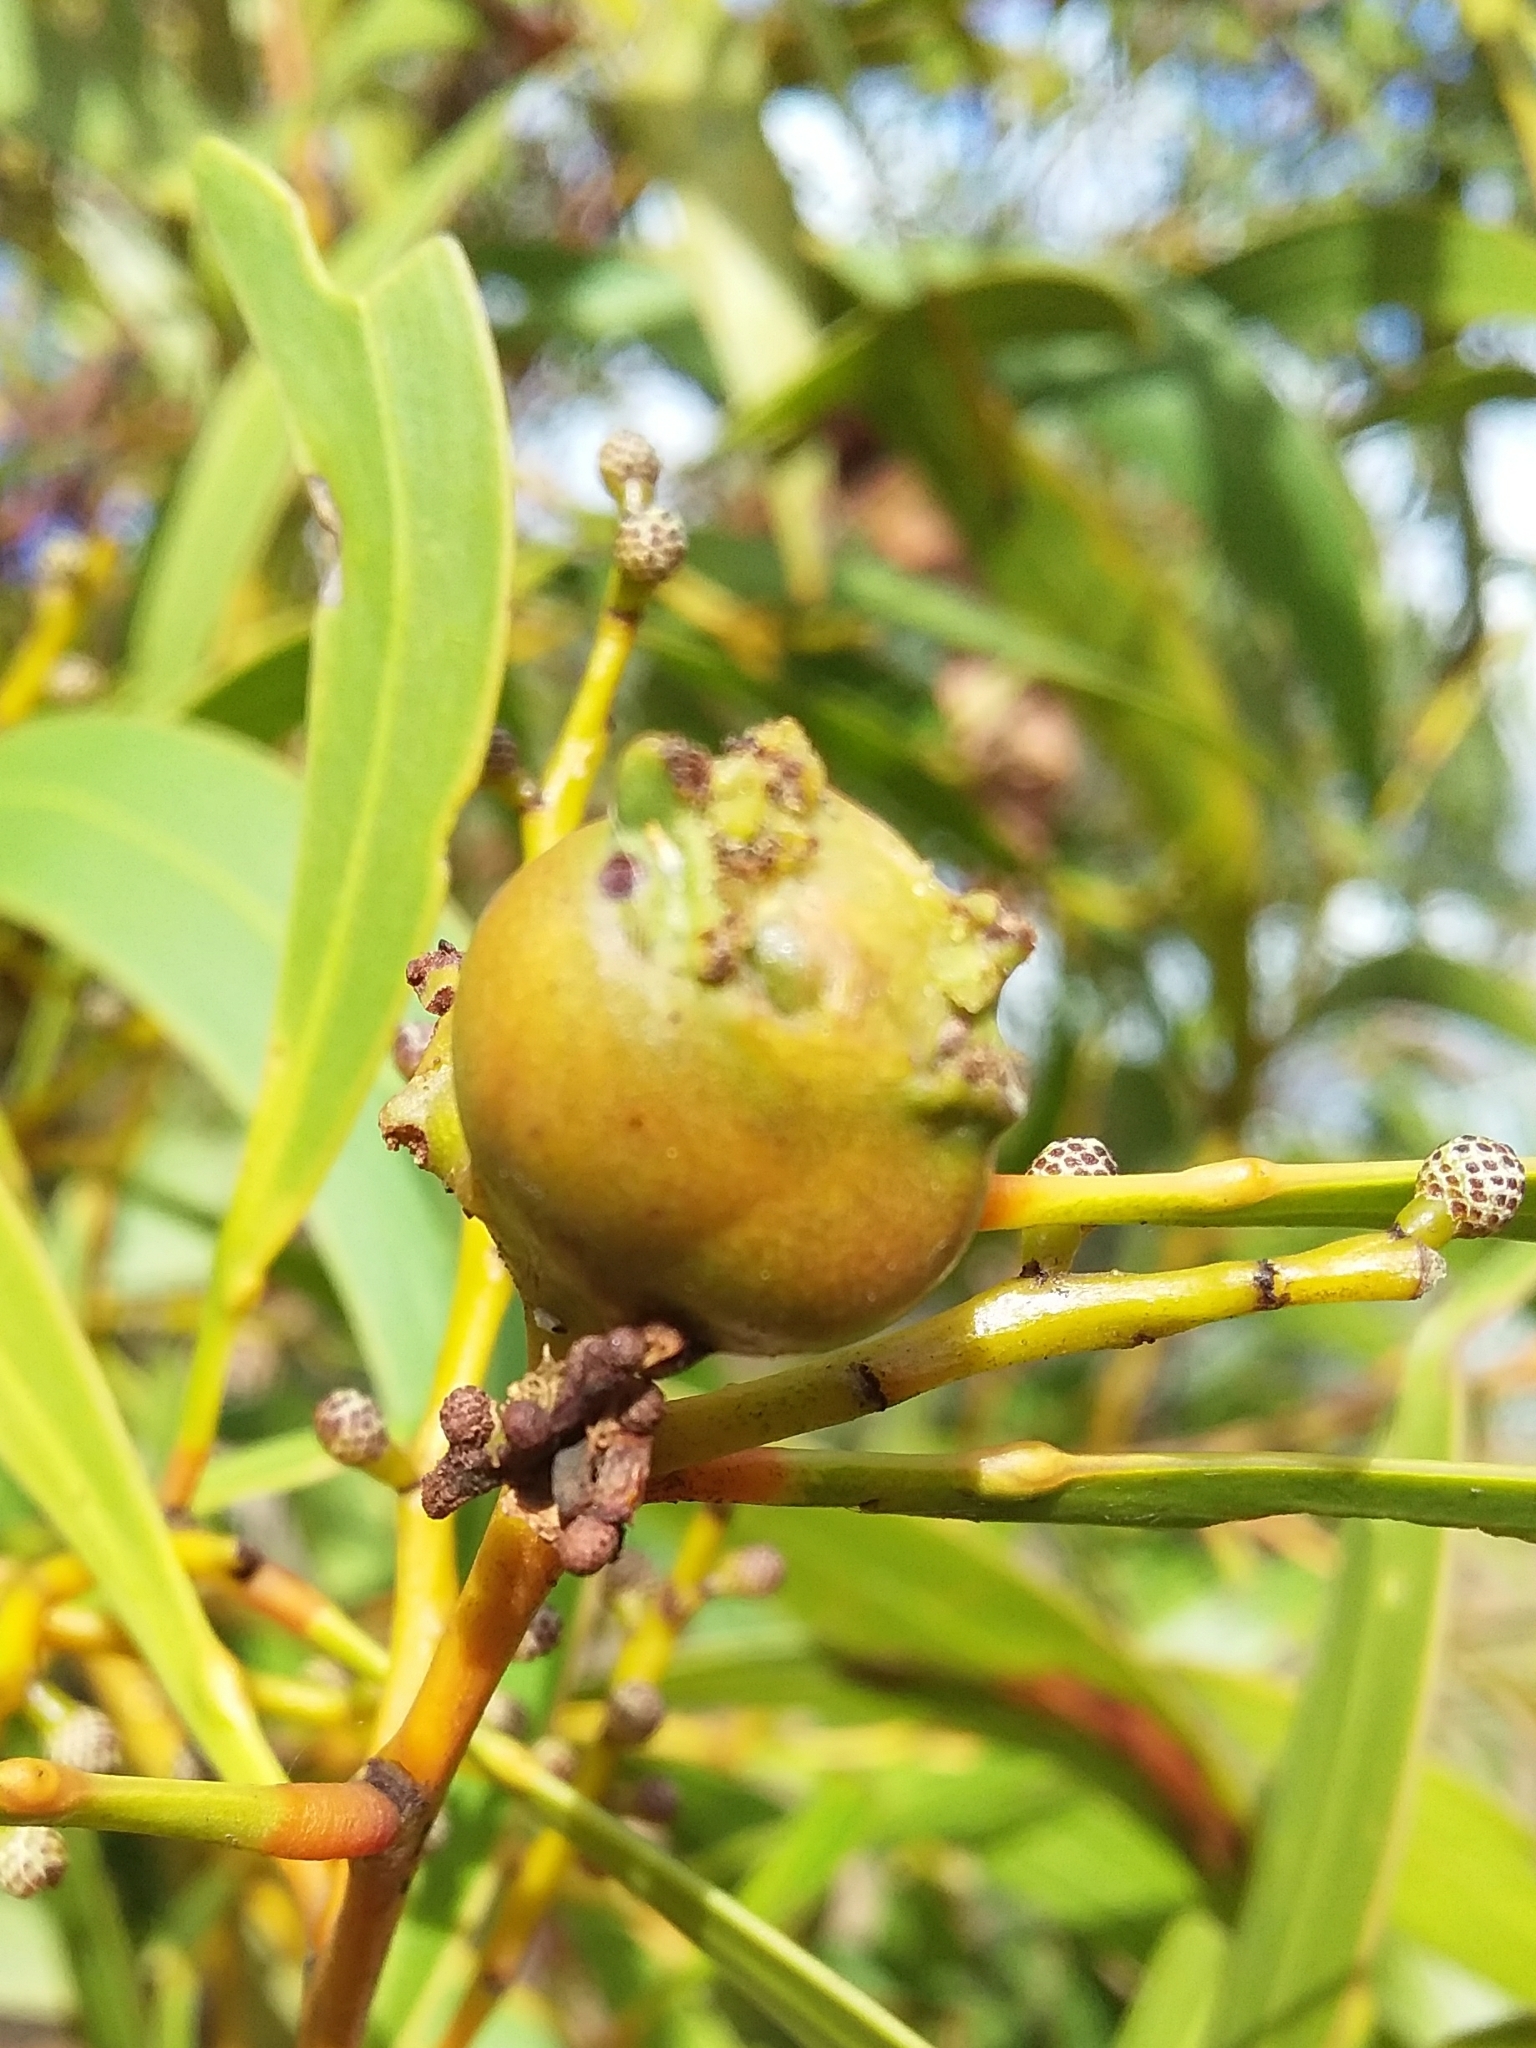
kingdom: Animalia
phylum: Arthropoda
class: Insecta
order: Hymenoptera
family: Pteromalidae
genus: Trichilogaster
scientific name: Trichilogaster signiventris
